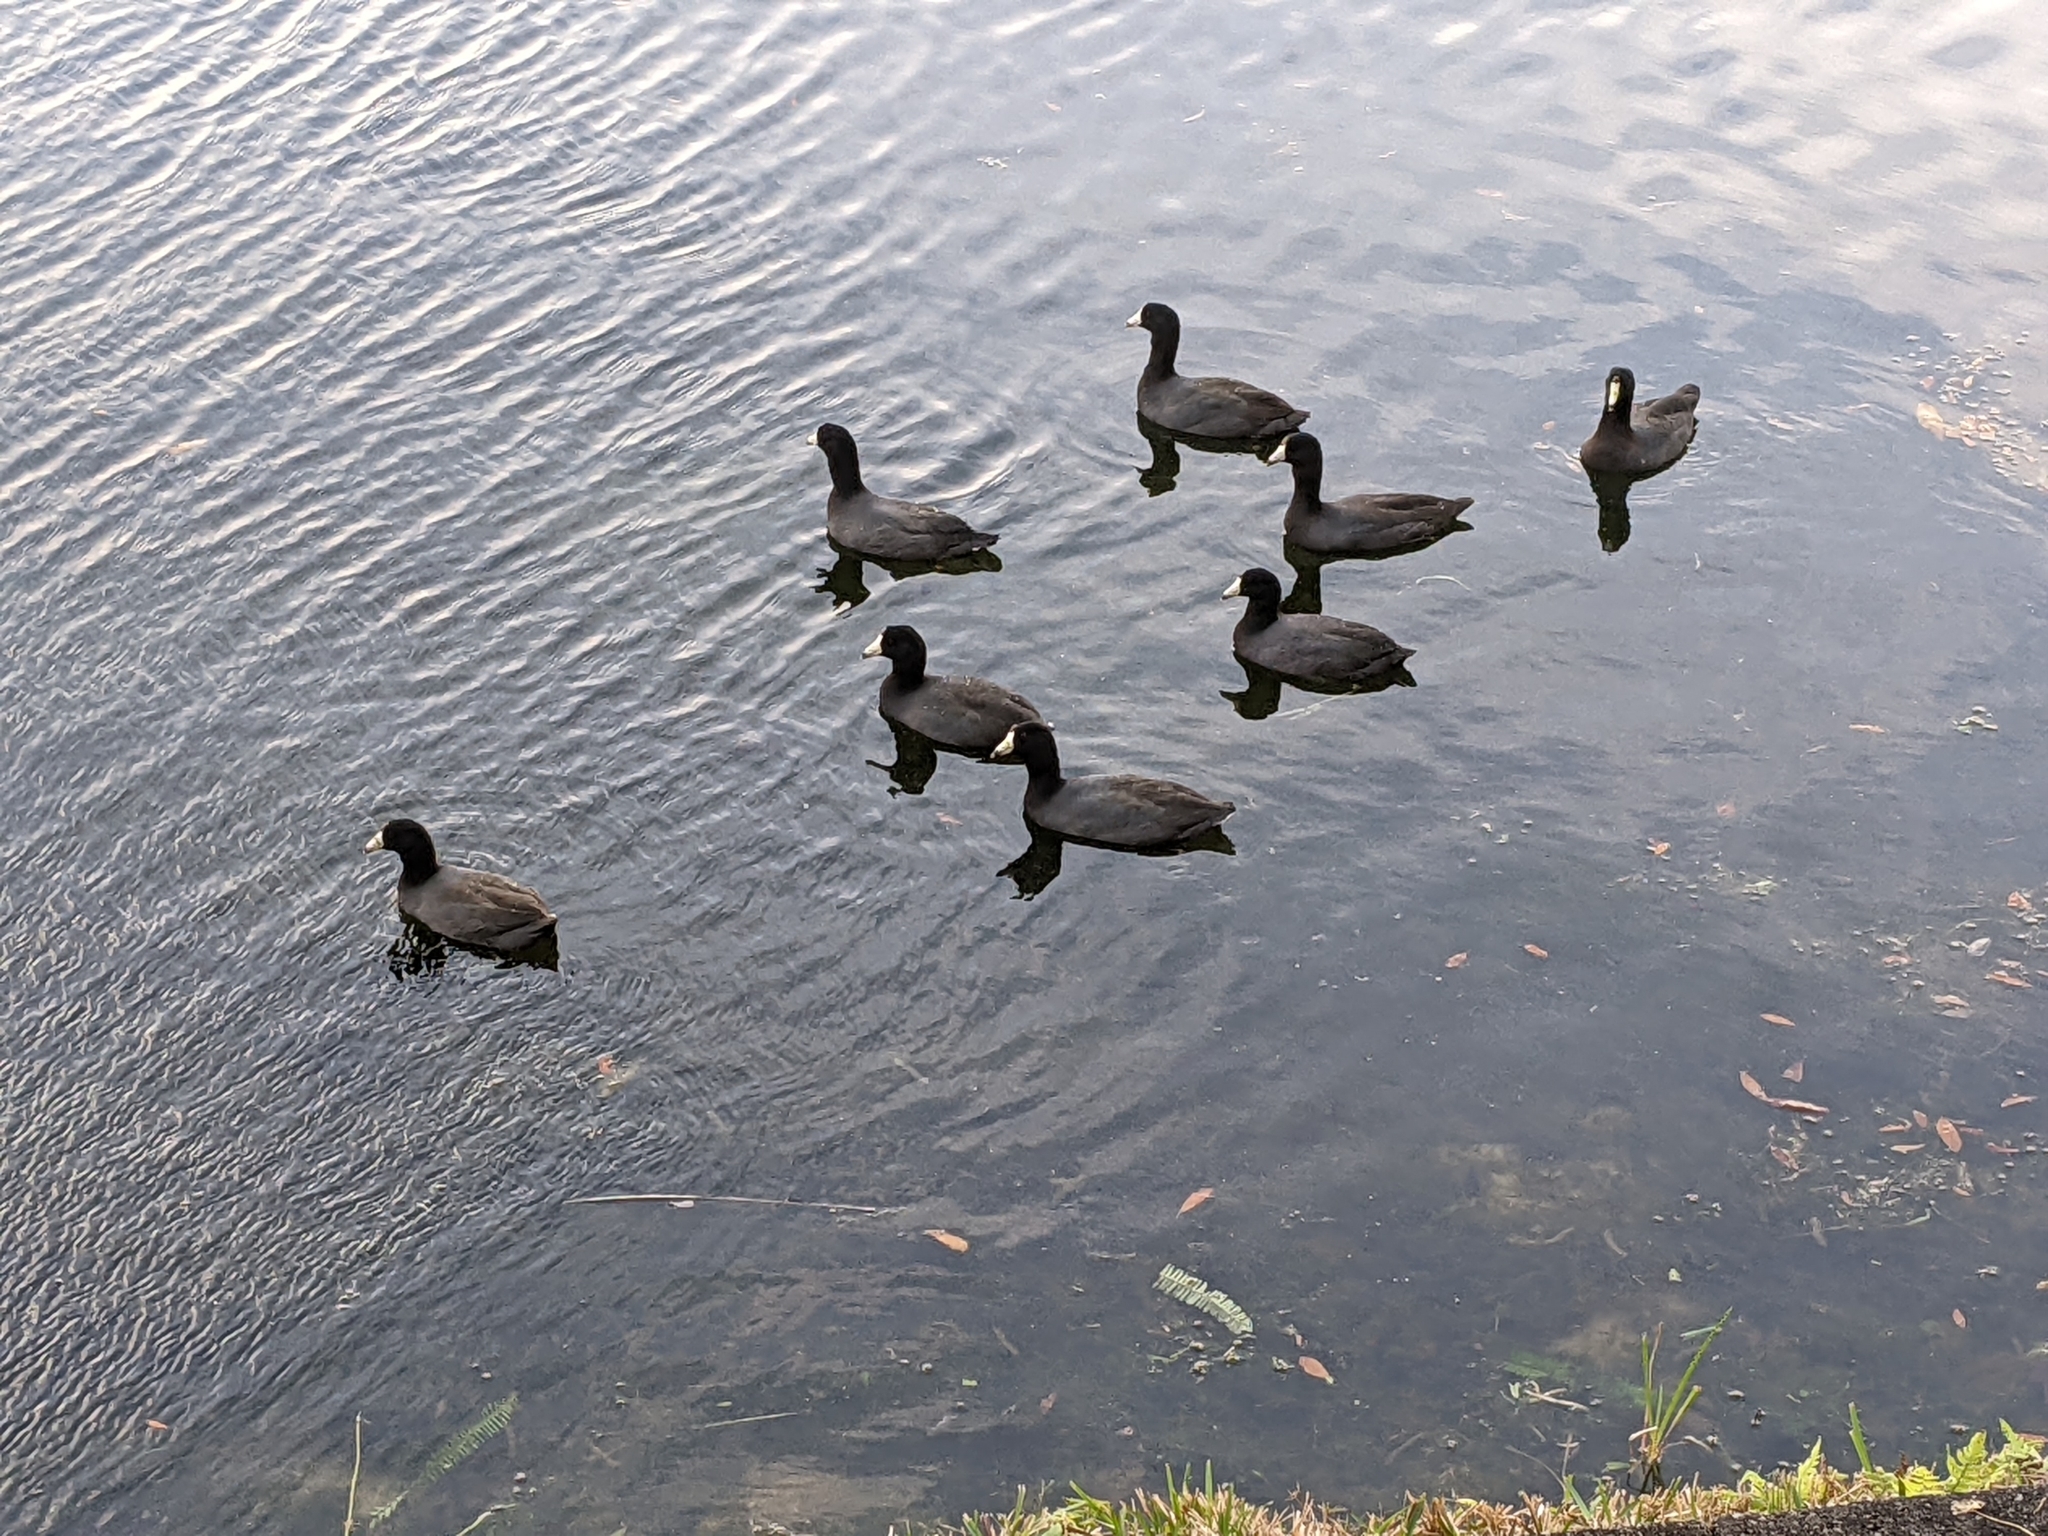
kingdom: Animalia
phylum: Chordata
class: Aves
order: Gruiformes
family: Rallidae
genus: Fulica
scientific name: Fulica americana
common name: American coot
